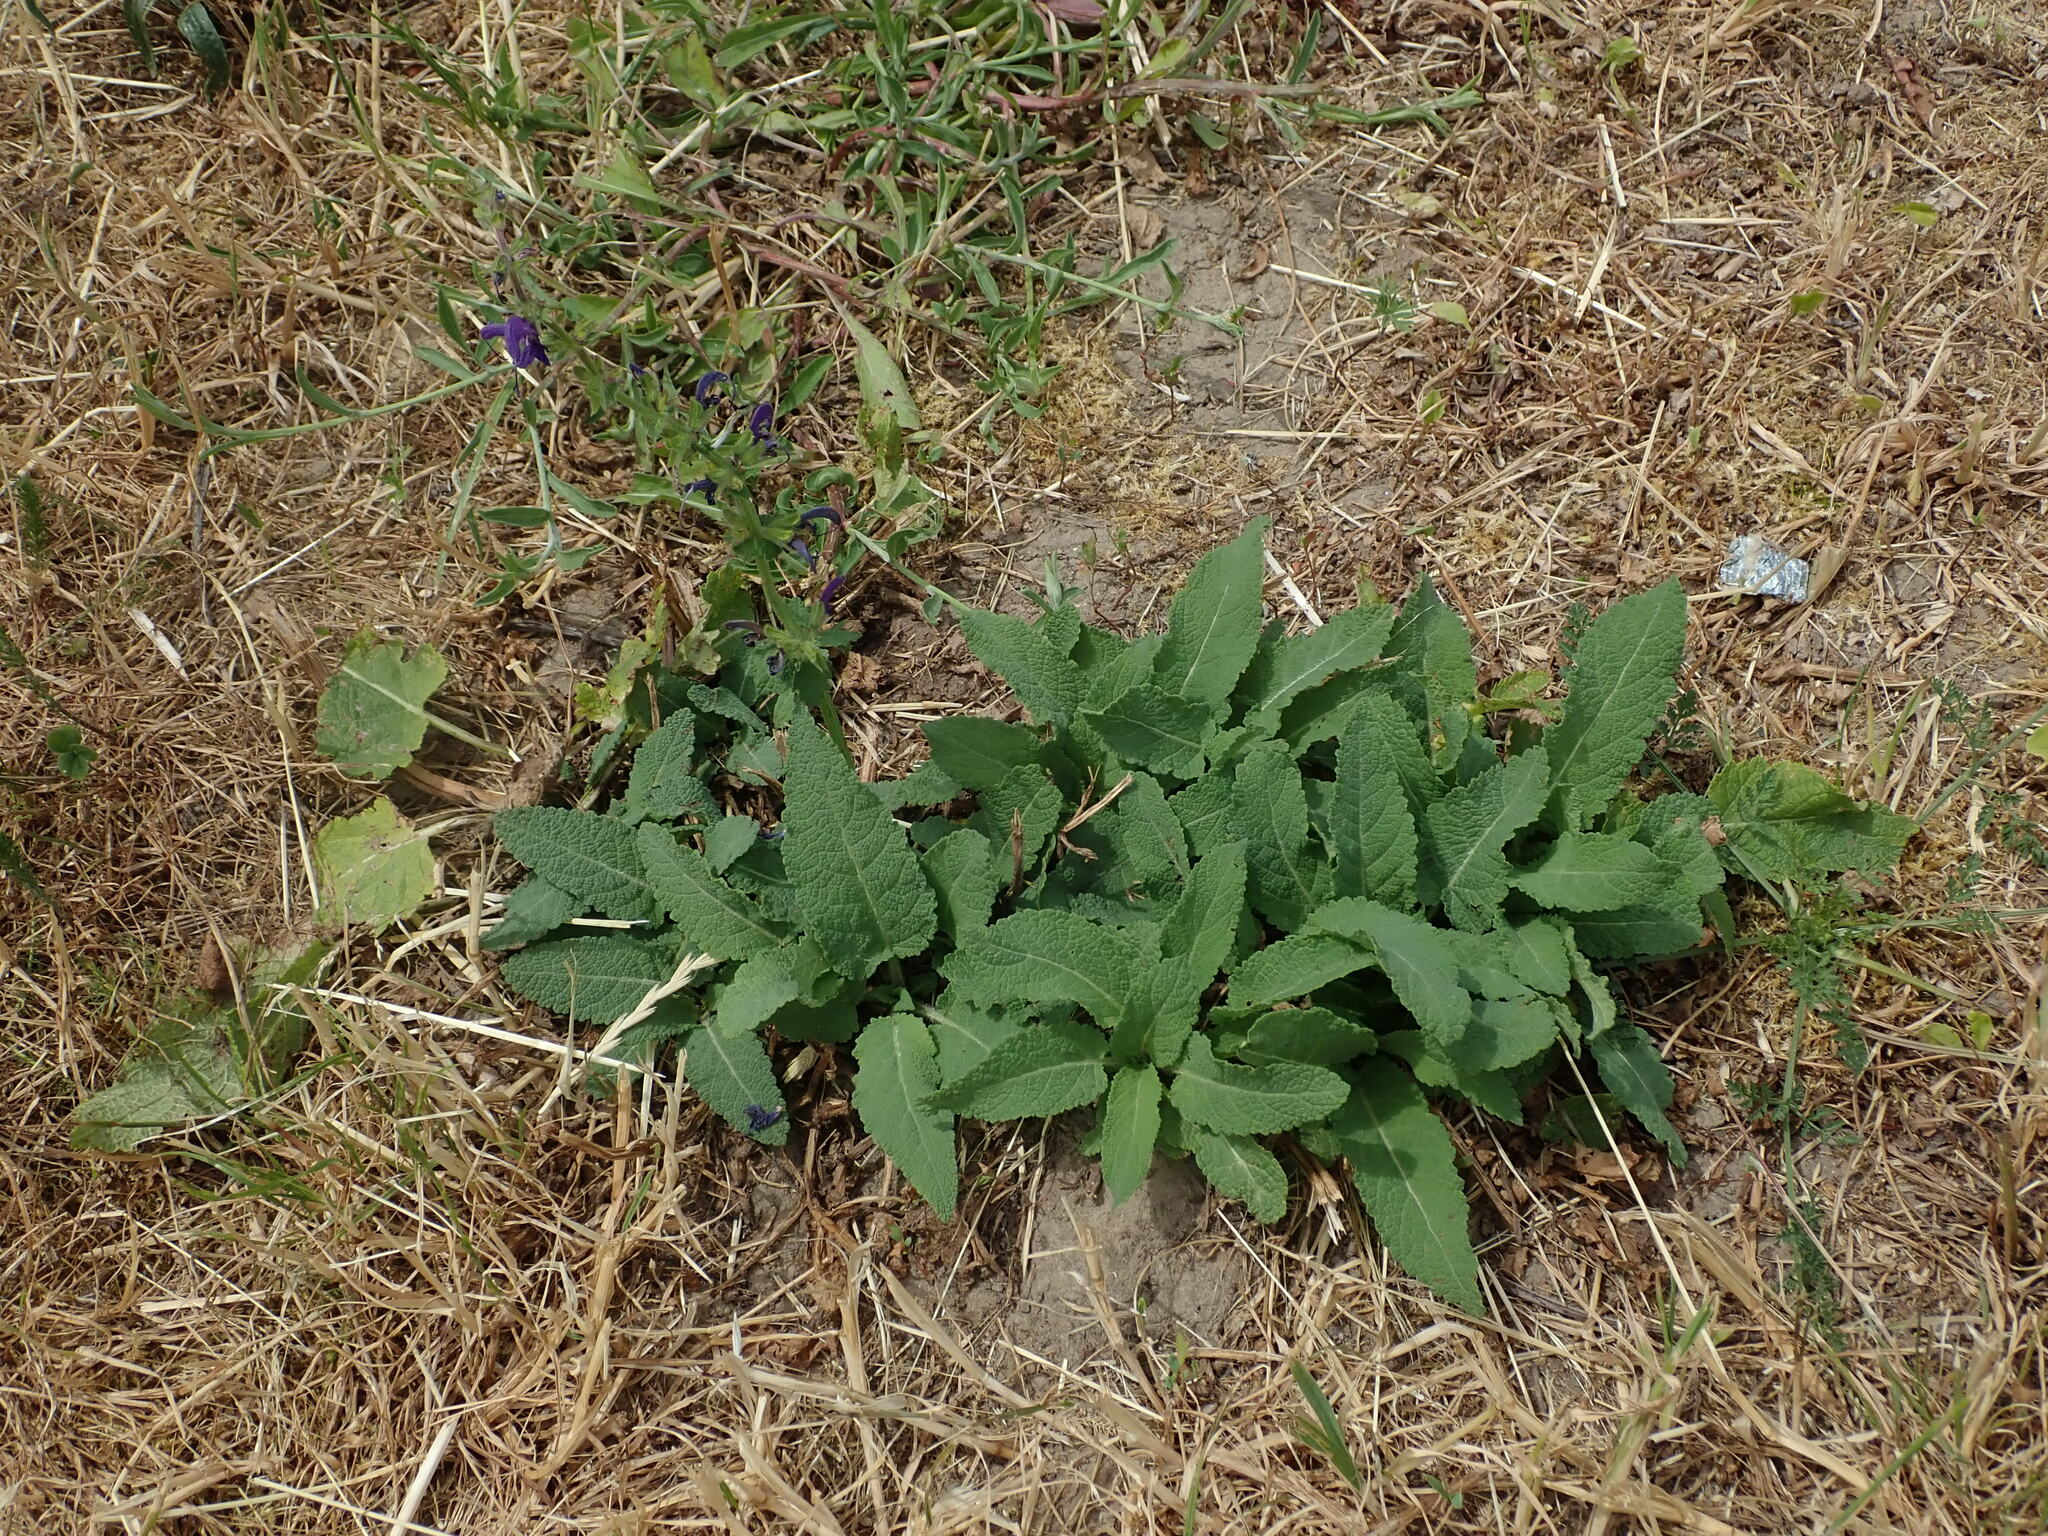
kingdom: Plantae
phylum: Tracheophyta
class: Magnoliopsida
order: Lamiales
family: Lamiaceae
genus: Salvia
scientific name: Salvia pratensis
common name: Meadow sage
